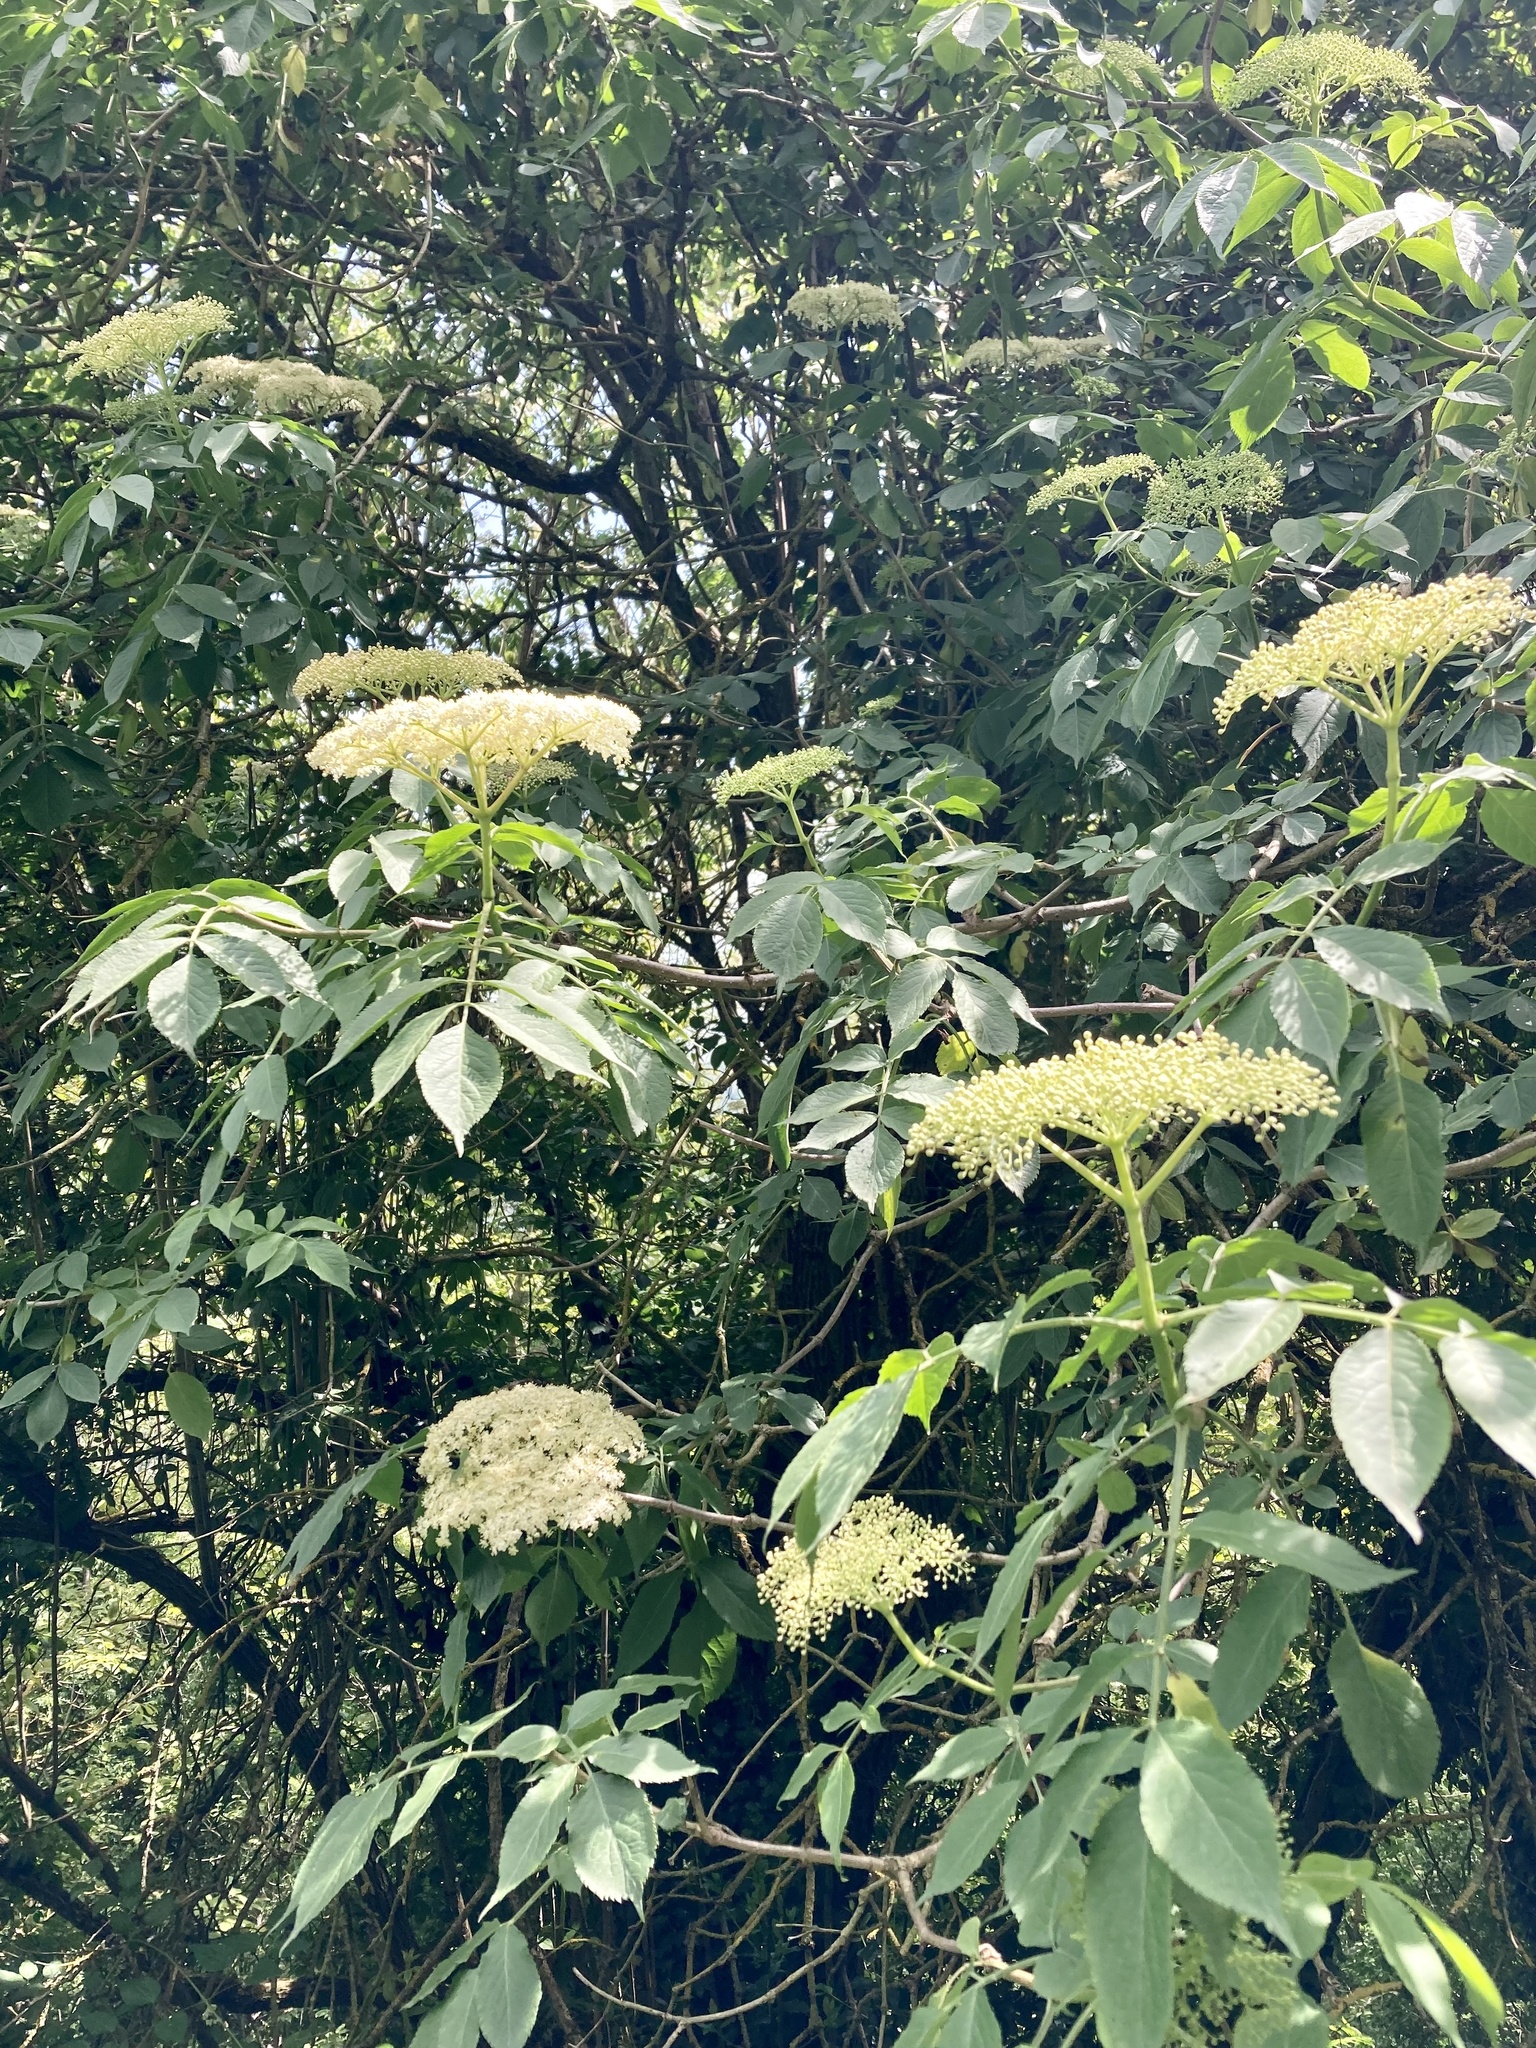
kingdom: Plantae
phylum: Tracheophyta
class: Magnoliopsida
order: Dipsacales
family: Viburnaceae
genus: Sambucus
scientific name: Sambucus nigra
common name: Elder
